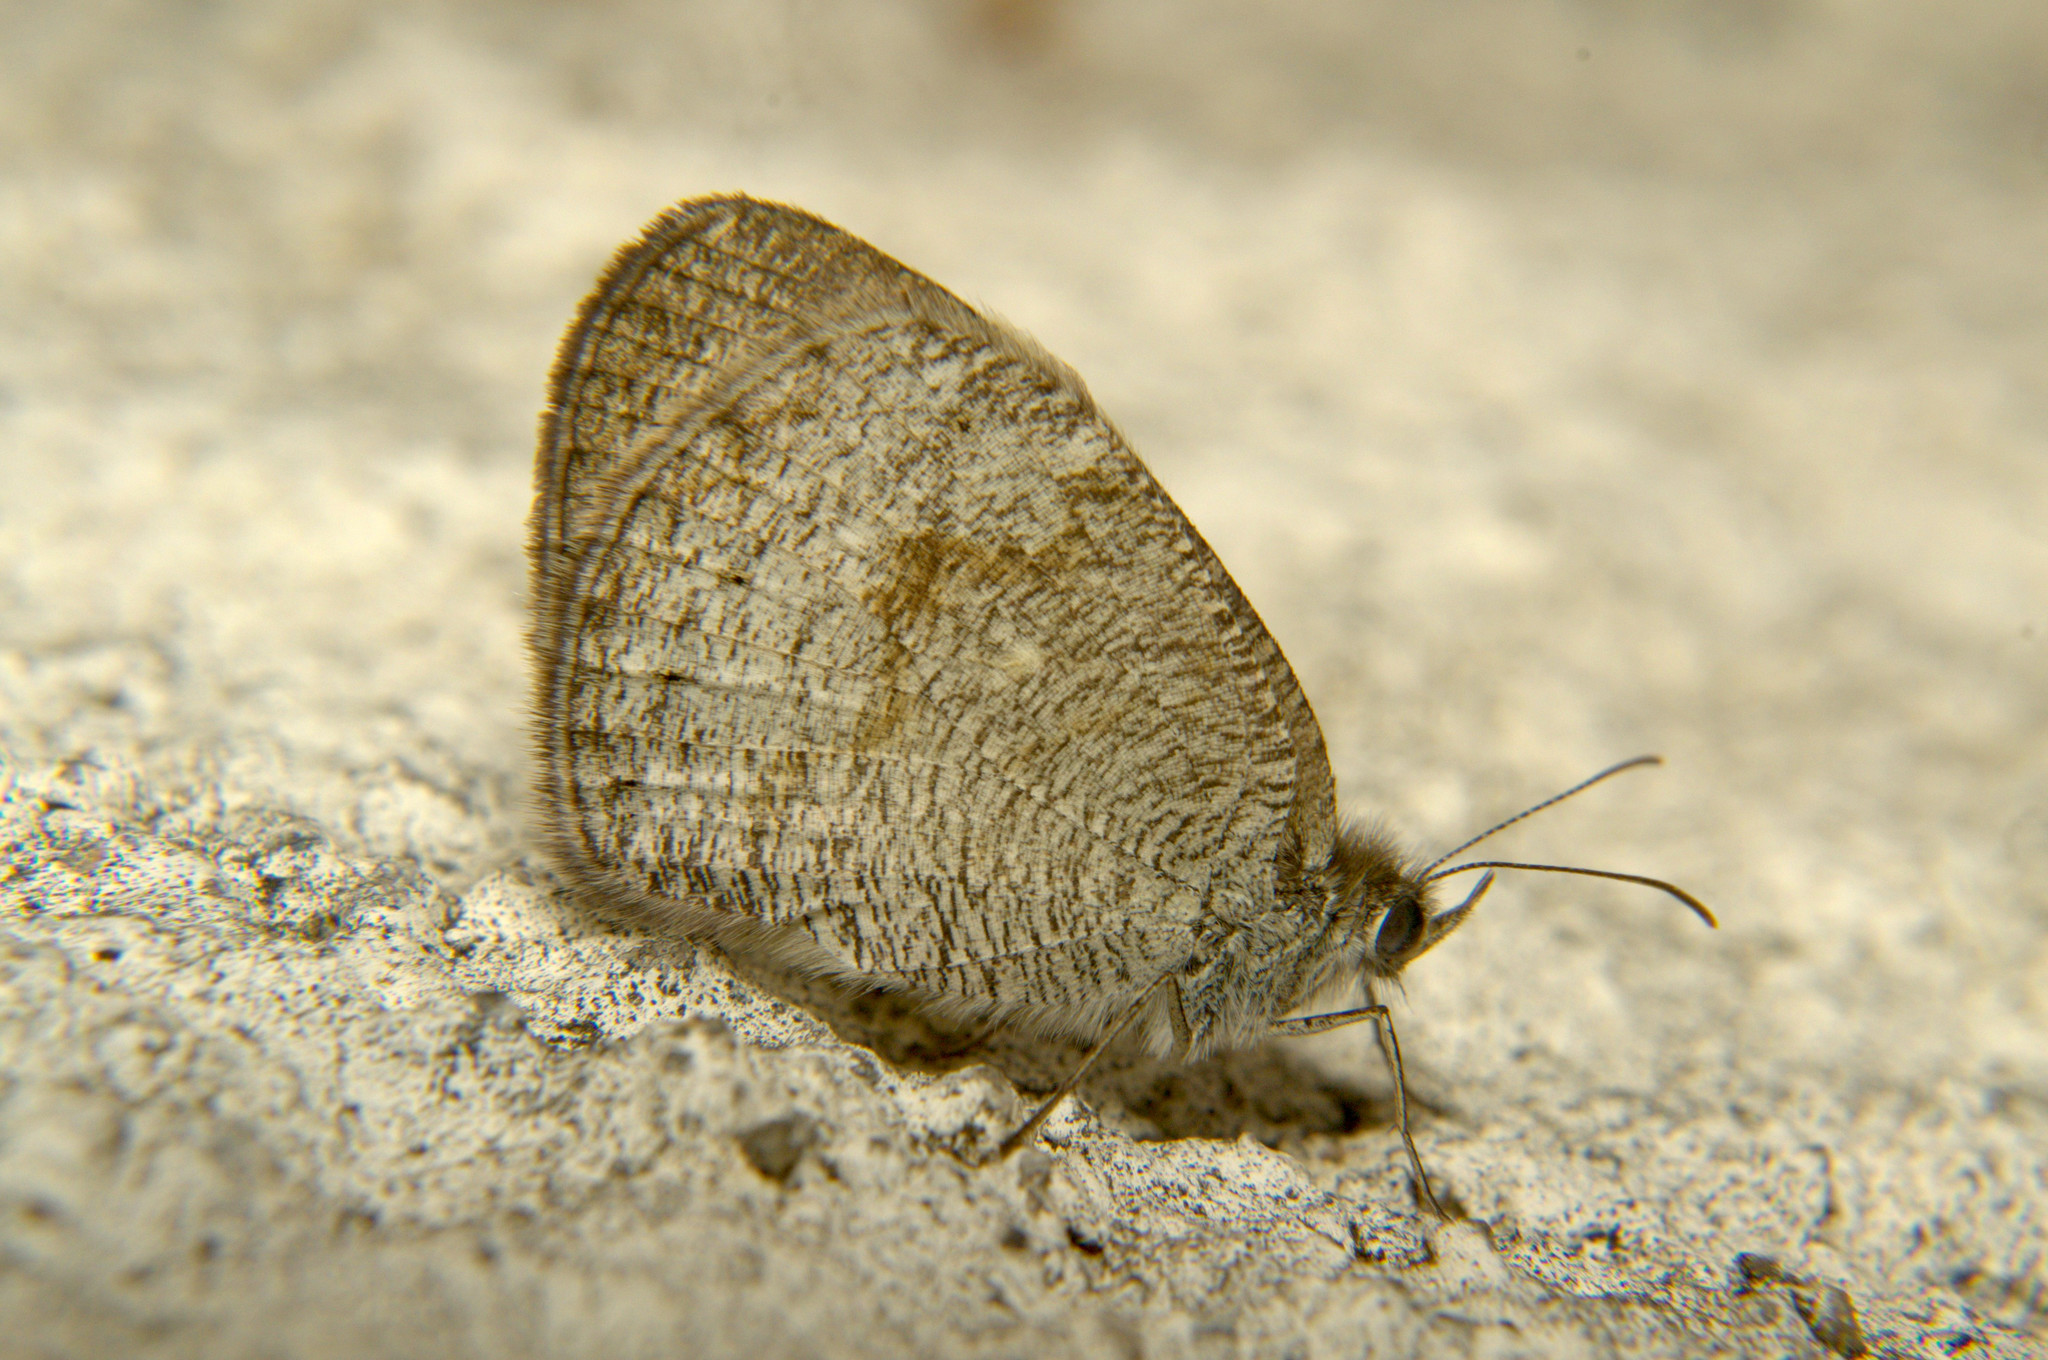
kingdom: Animalia
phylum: Arthropoda
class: Insecta
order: Lepidoptera
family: Nymphalidae
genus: Ypthima
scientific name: Ypthima huebneri
